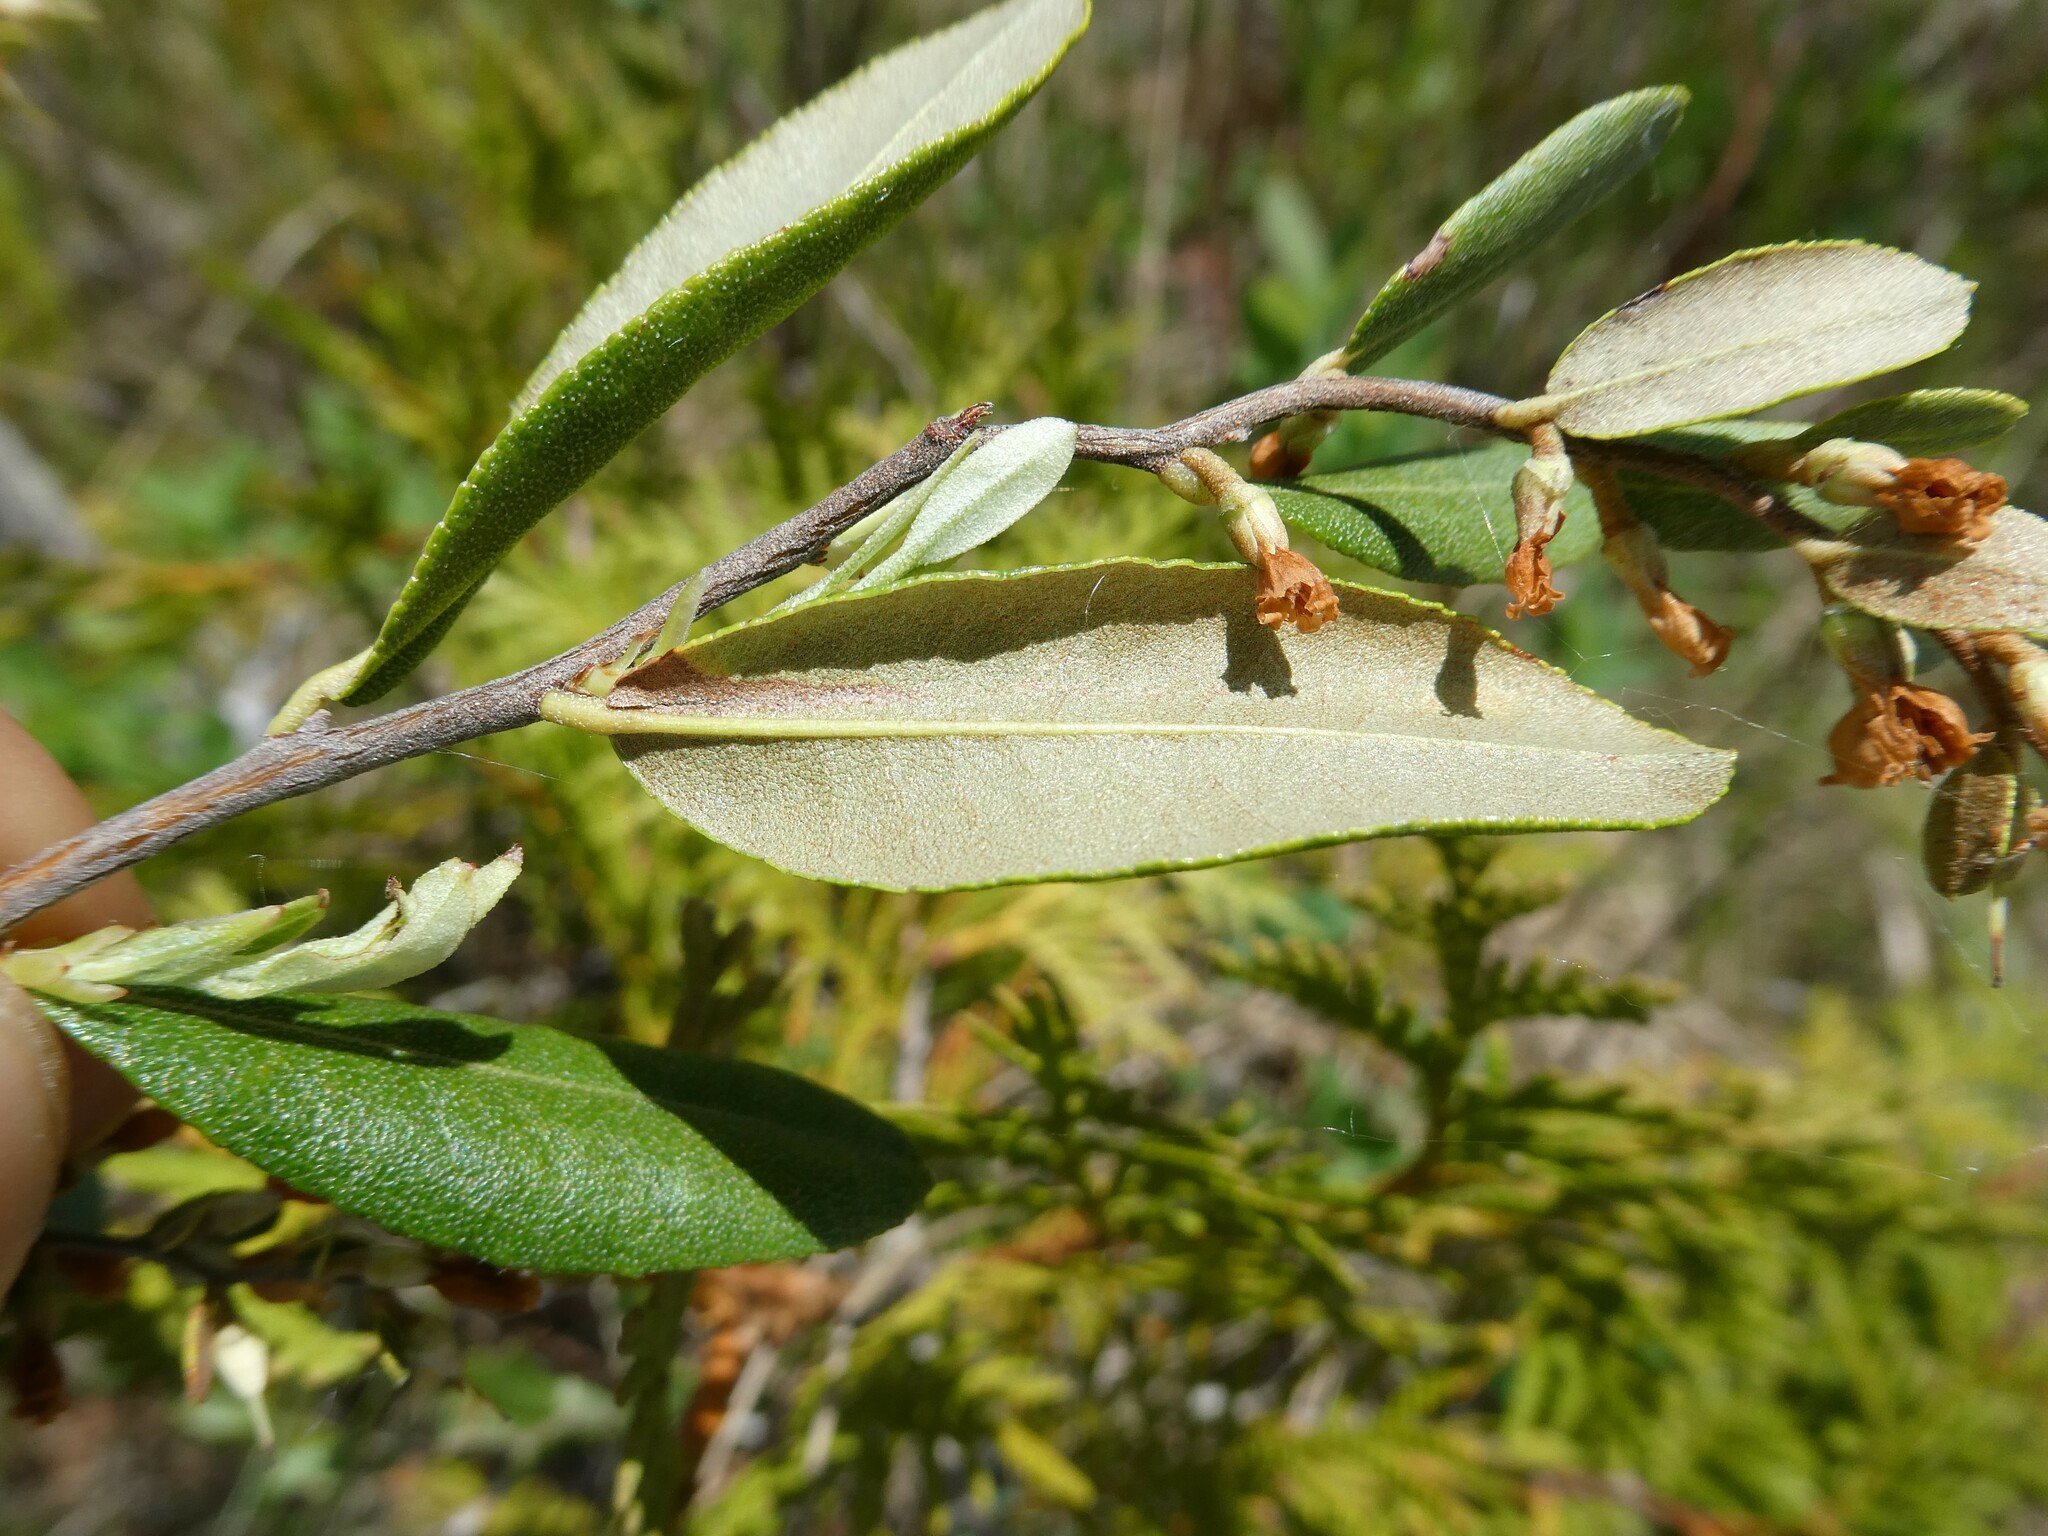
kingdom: Plantae
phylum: Tracheophyta
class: Magnoliopsida
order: Ericales
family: Ericaceae
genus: Chamaedaphne
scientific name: Chamaedaphne calyculata
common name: Leatherleaf
